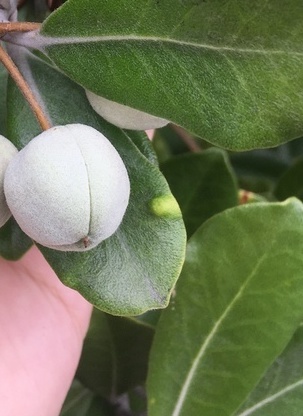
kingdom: Animalia
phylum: Arthropoda
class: Insecta
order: Hemiptera
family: Triozidae
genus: Powellia
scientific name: Powellia vitreoradiata
